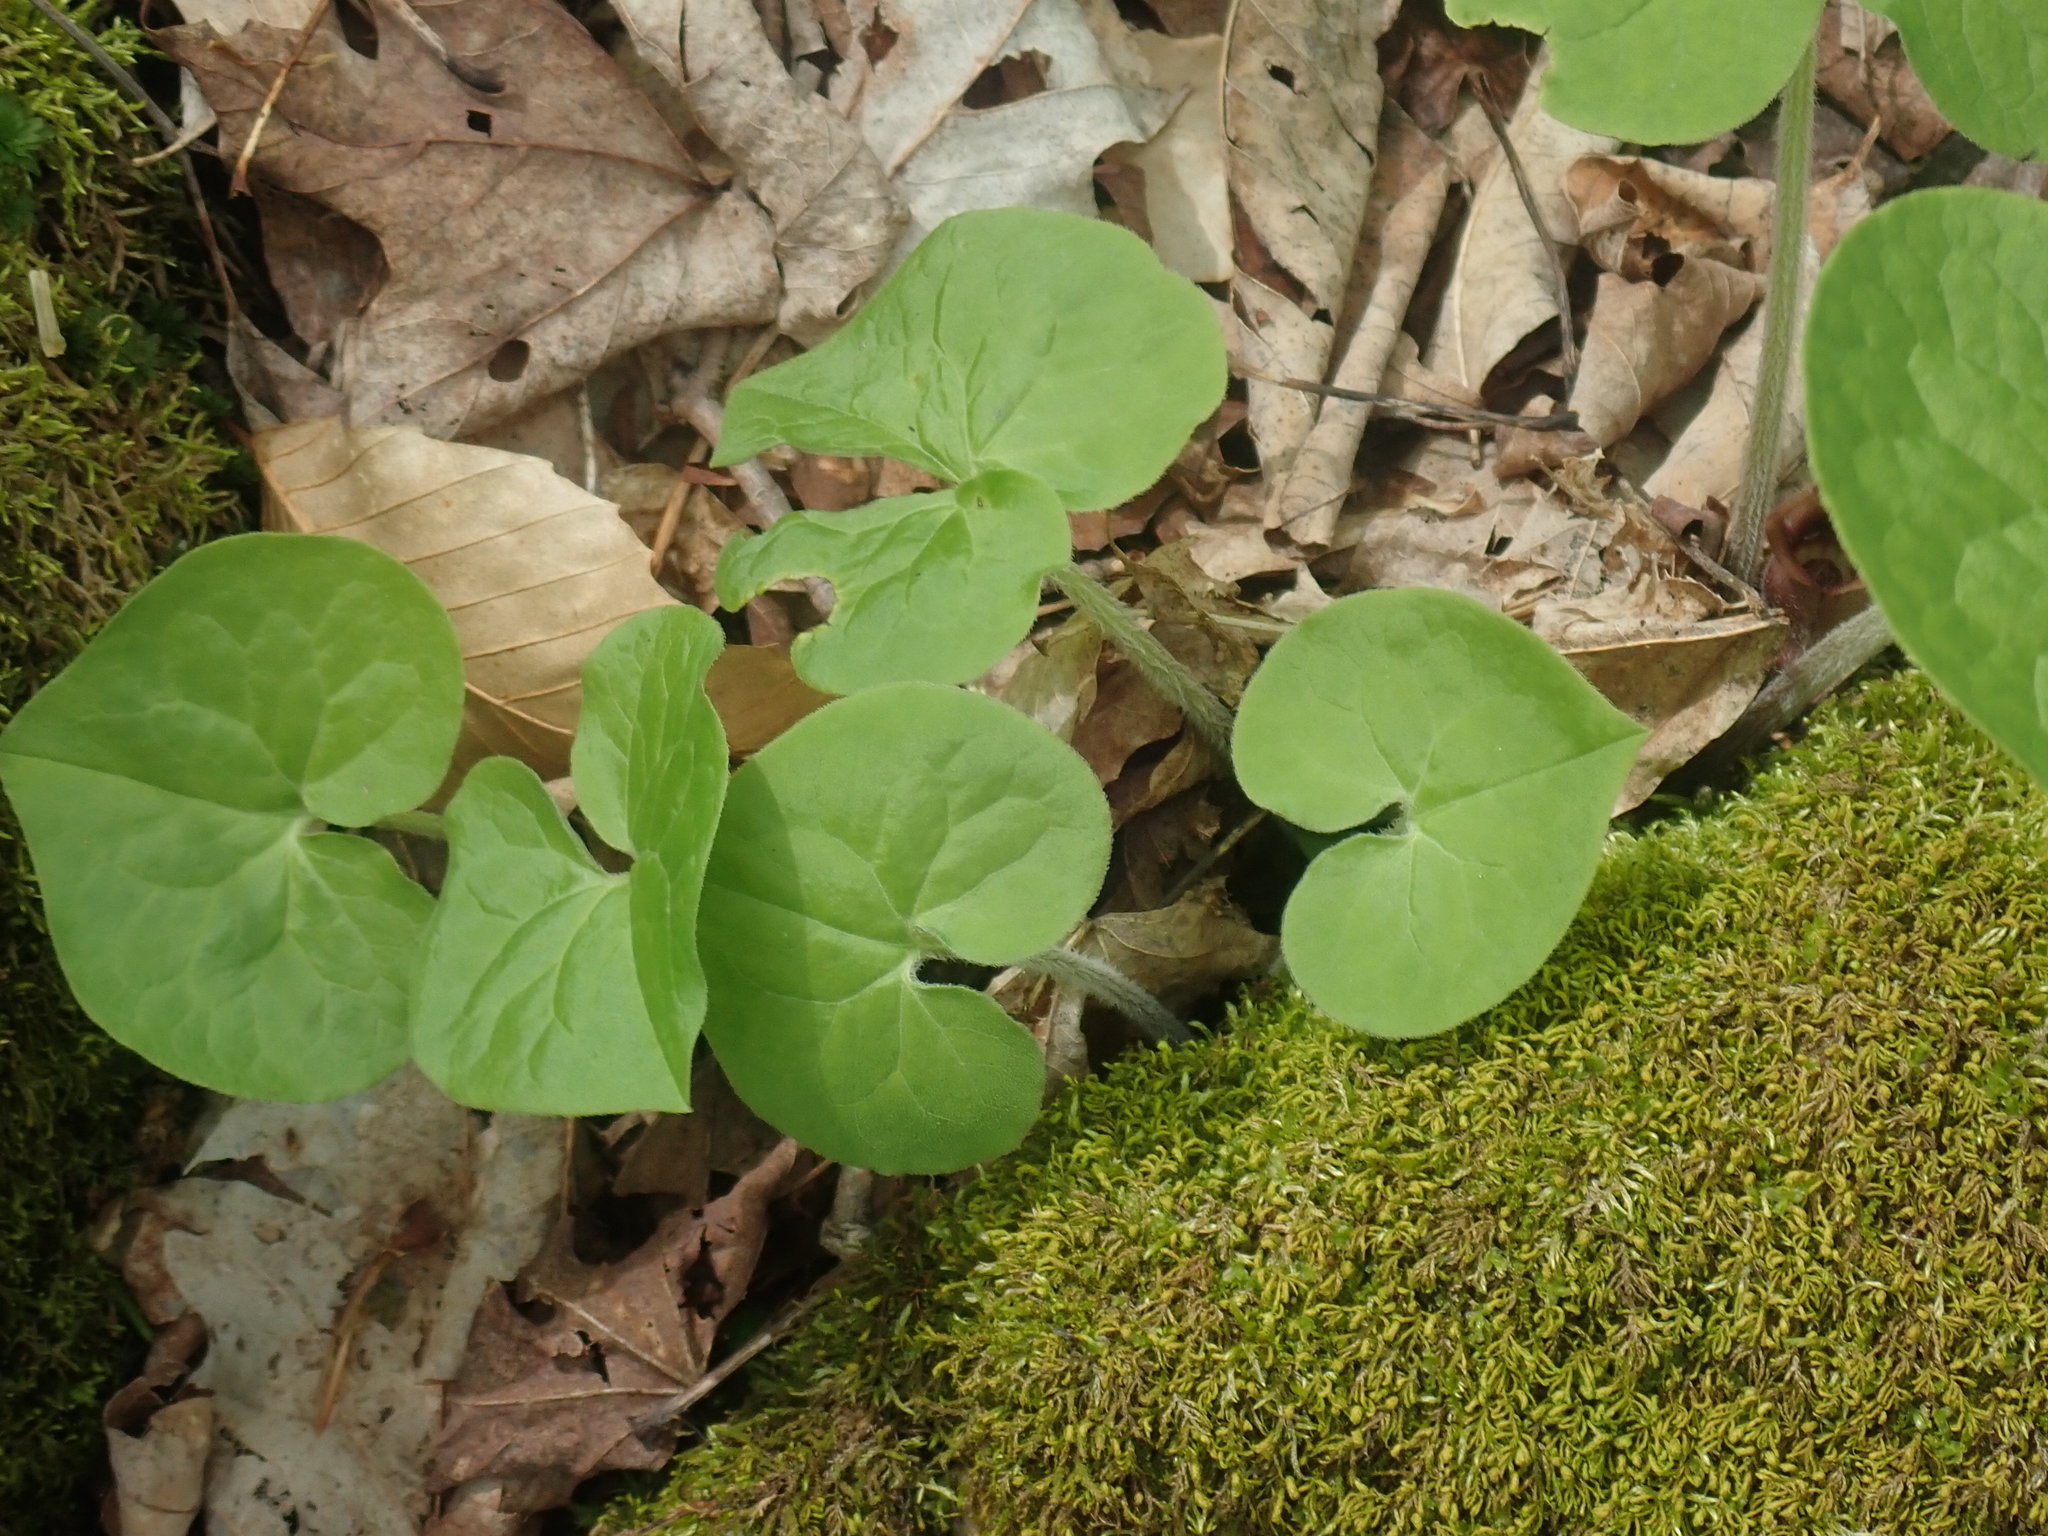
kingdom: Plantae
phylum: Tracheophyta
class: Magnoliopsida
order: Piperales
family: Aristolochiaceae
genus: Asarum
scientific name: Asarum canadense
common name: Wild ginger
